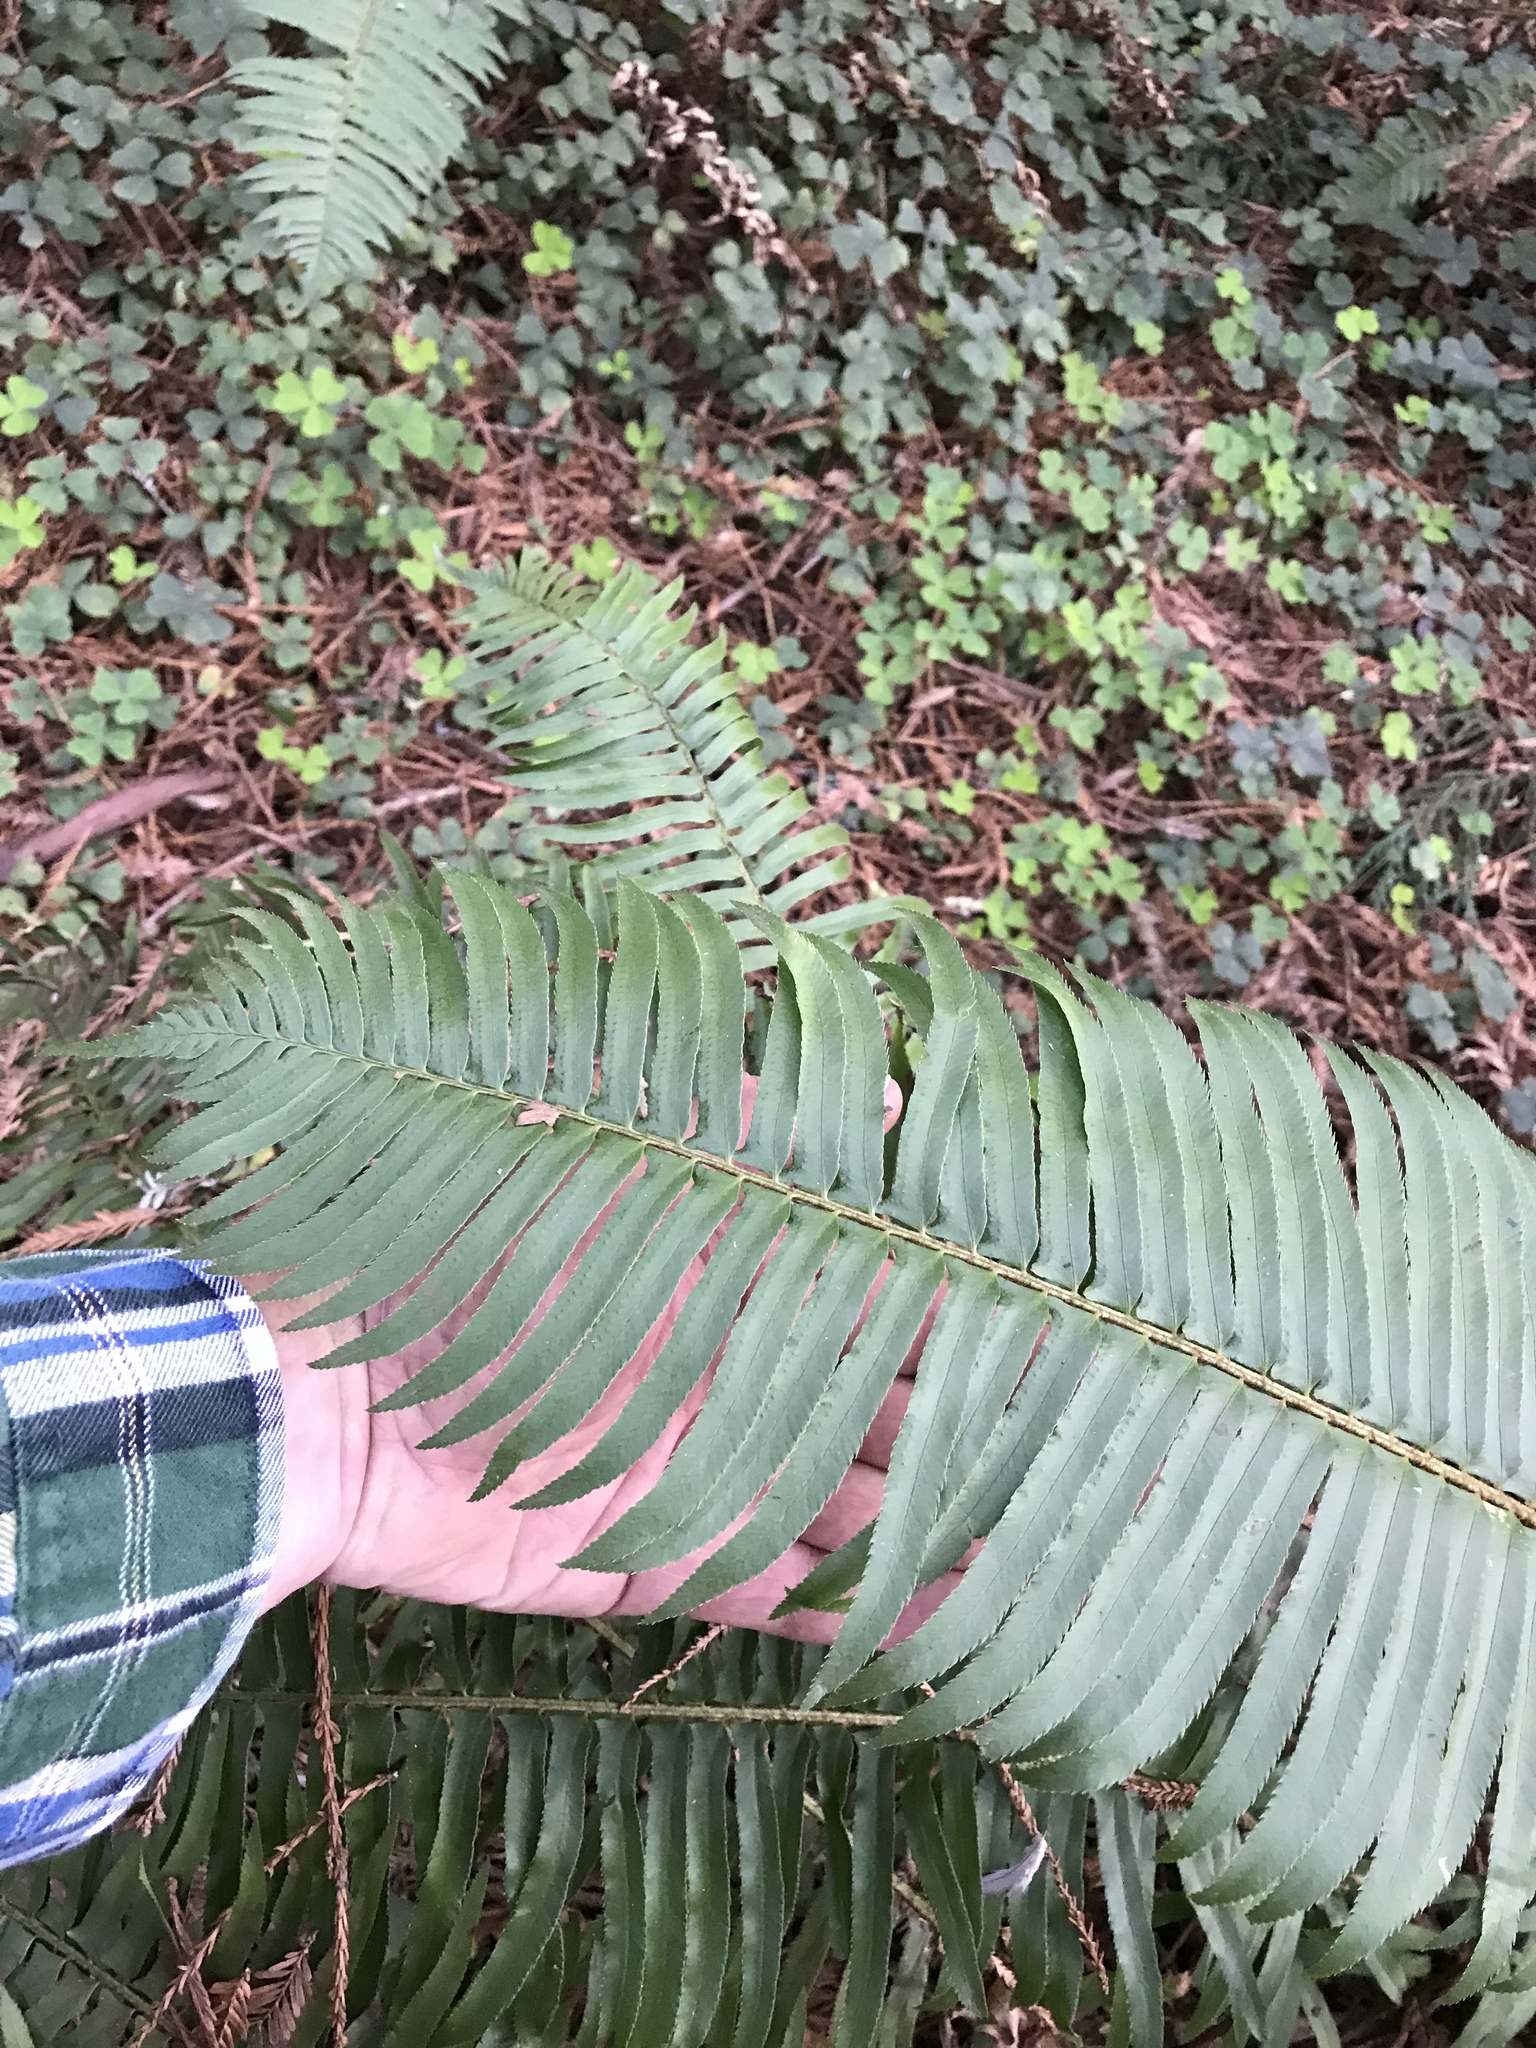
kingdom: Plantae
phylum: Tracheophyta
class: Polypodiopsida
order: Polypodiales
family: Dryopteridaceae
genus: Polystichum
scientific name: Polystichum munitum
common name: Western sword-fern
